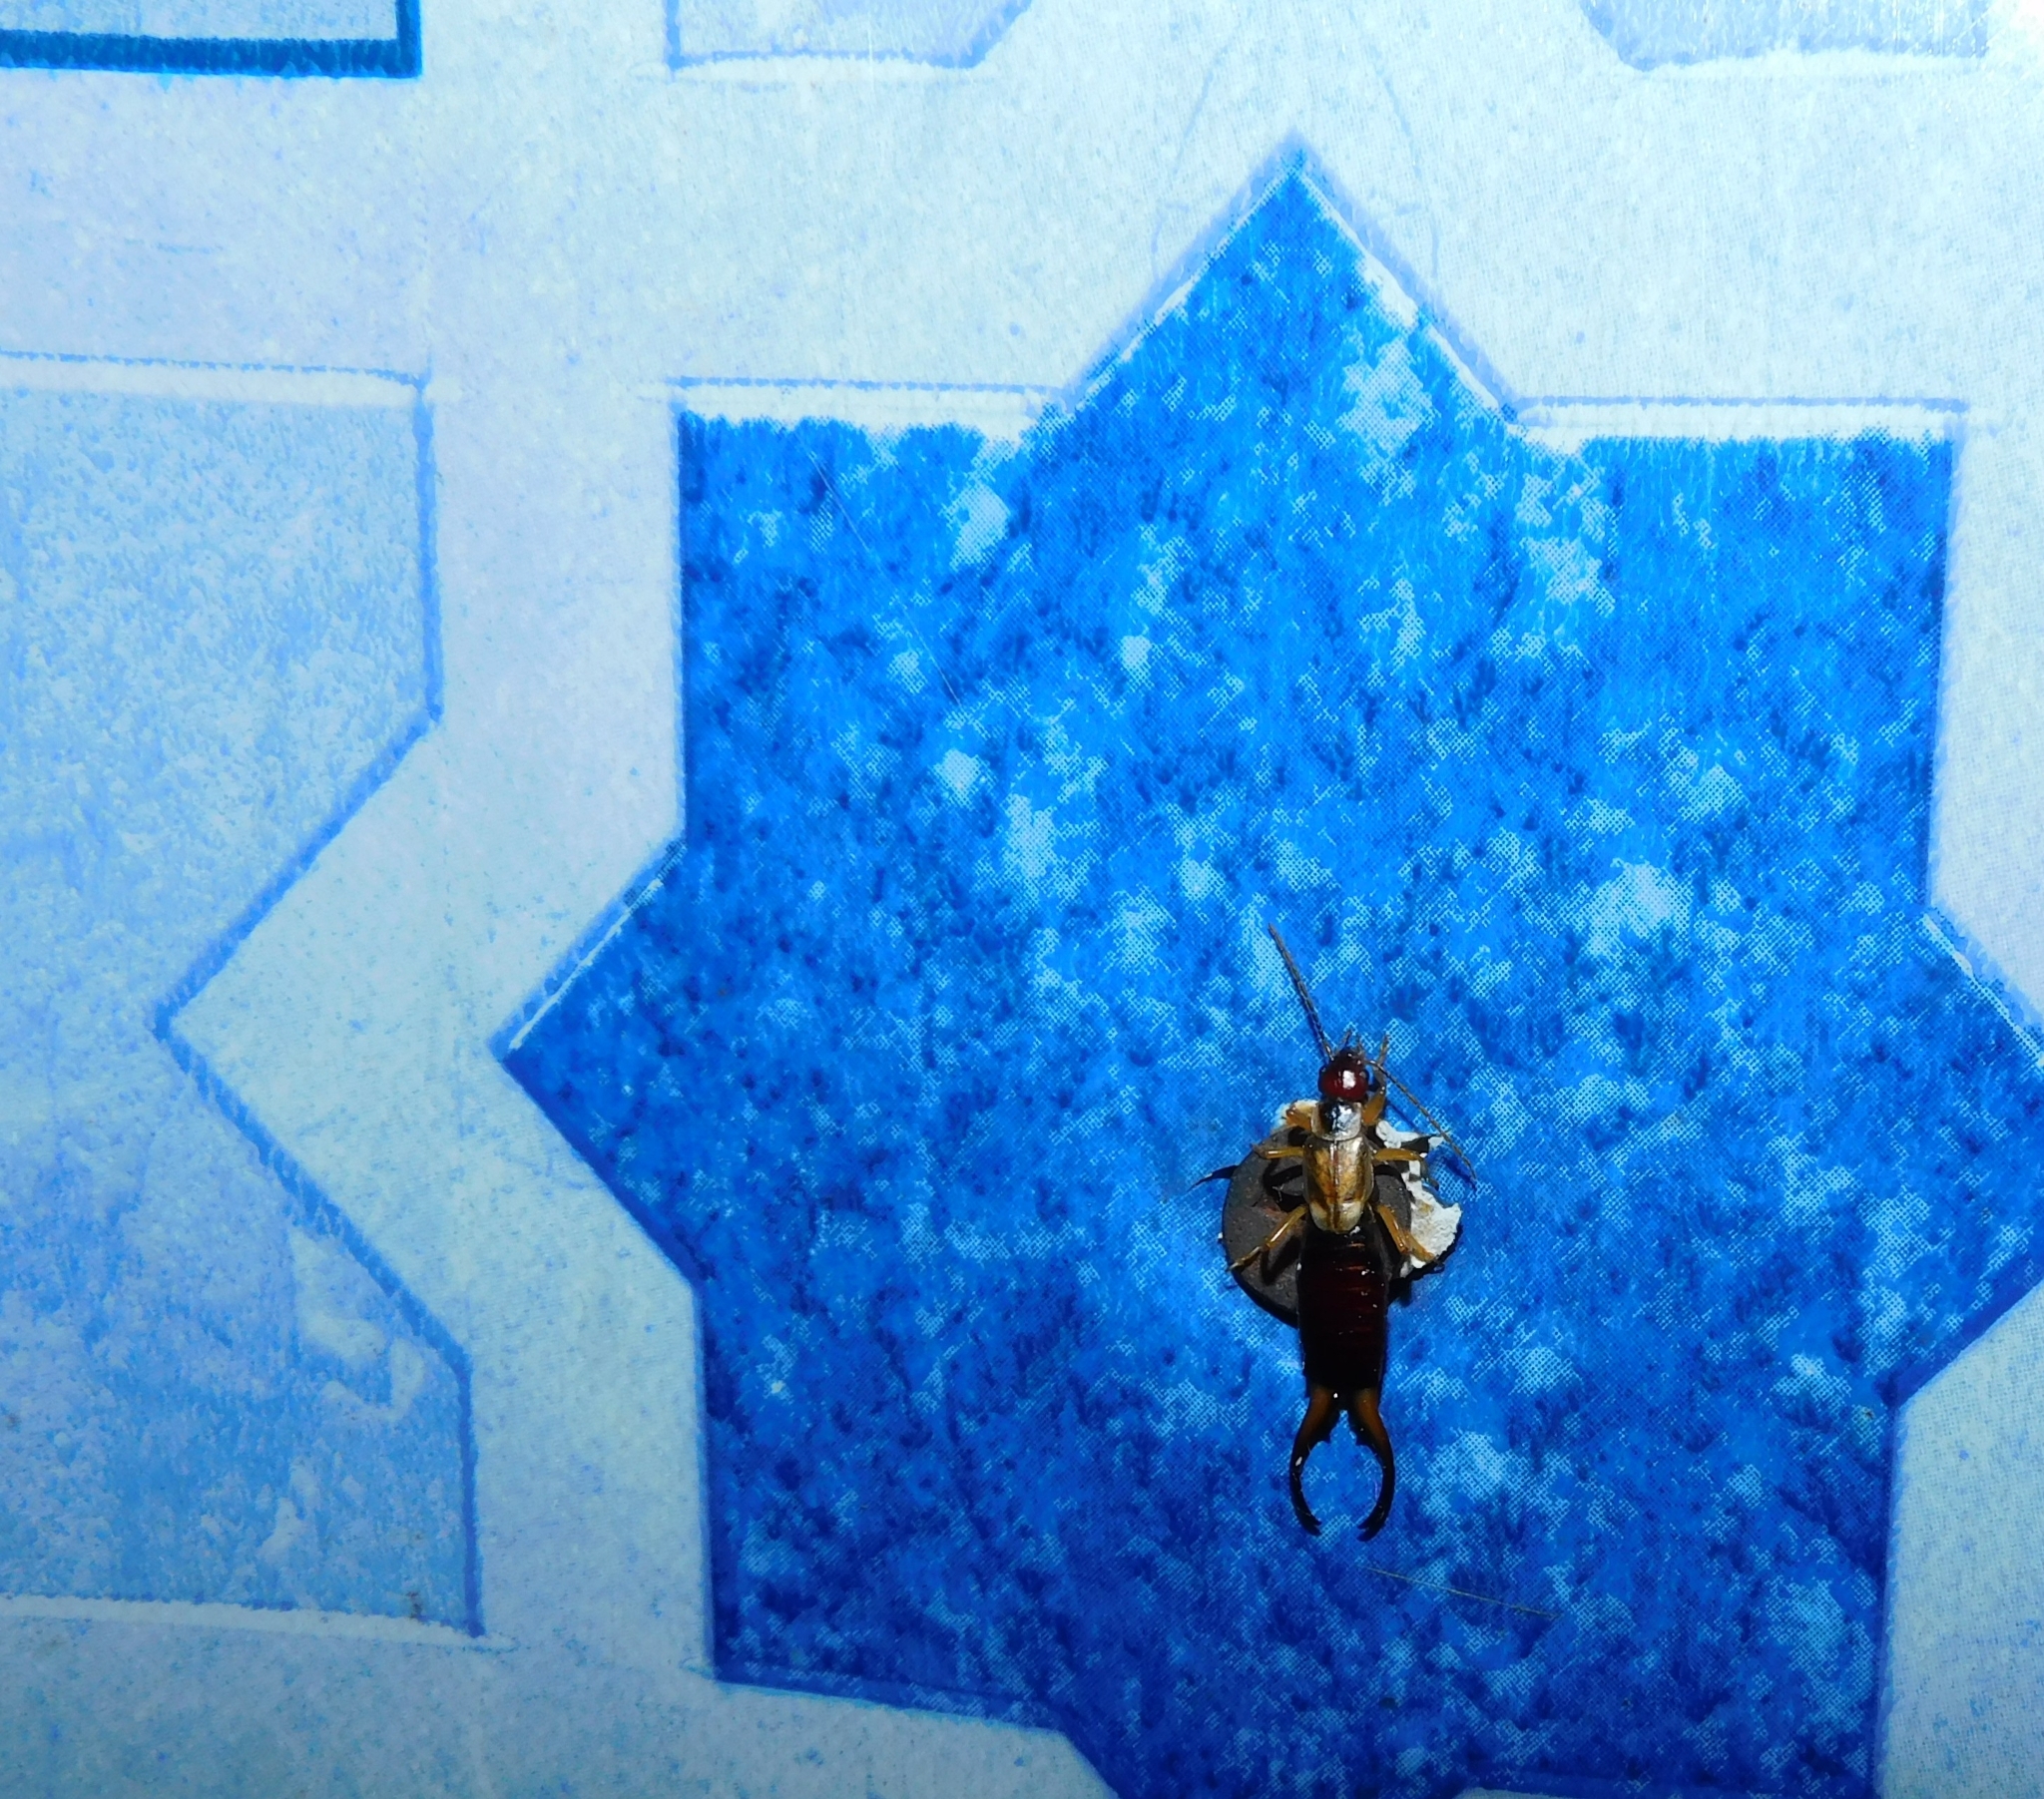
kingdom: Animalia
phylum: Arthropoda
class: Insecta
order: Dermaptera
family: Forficulidae
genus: Forficula
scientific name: Forficula
